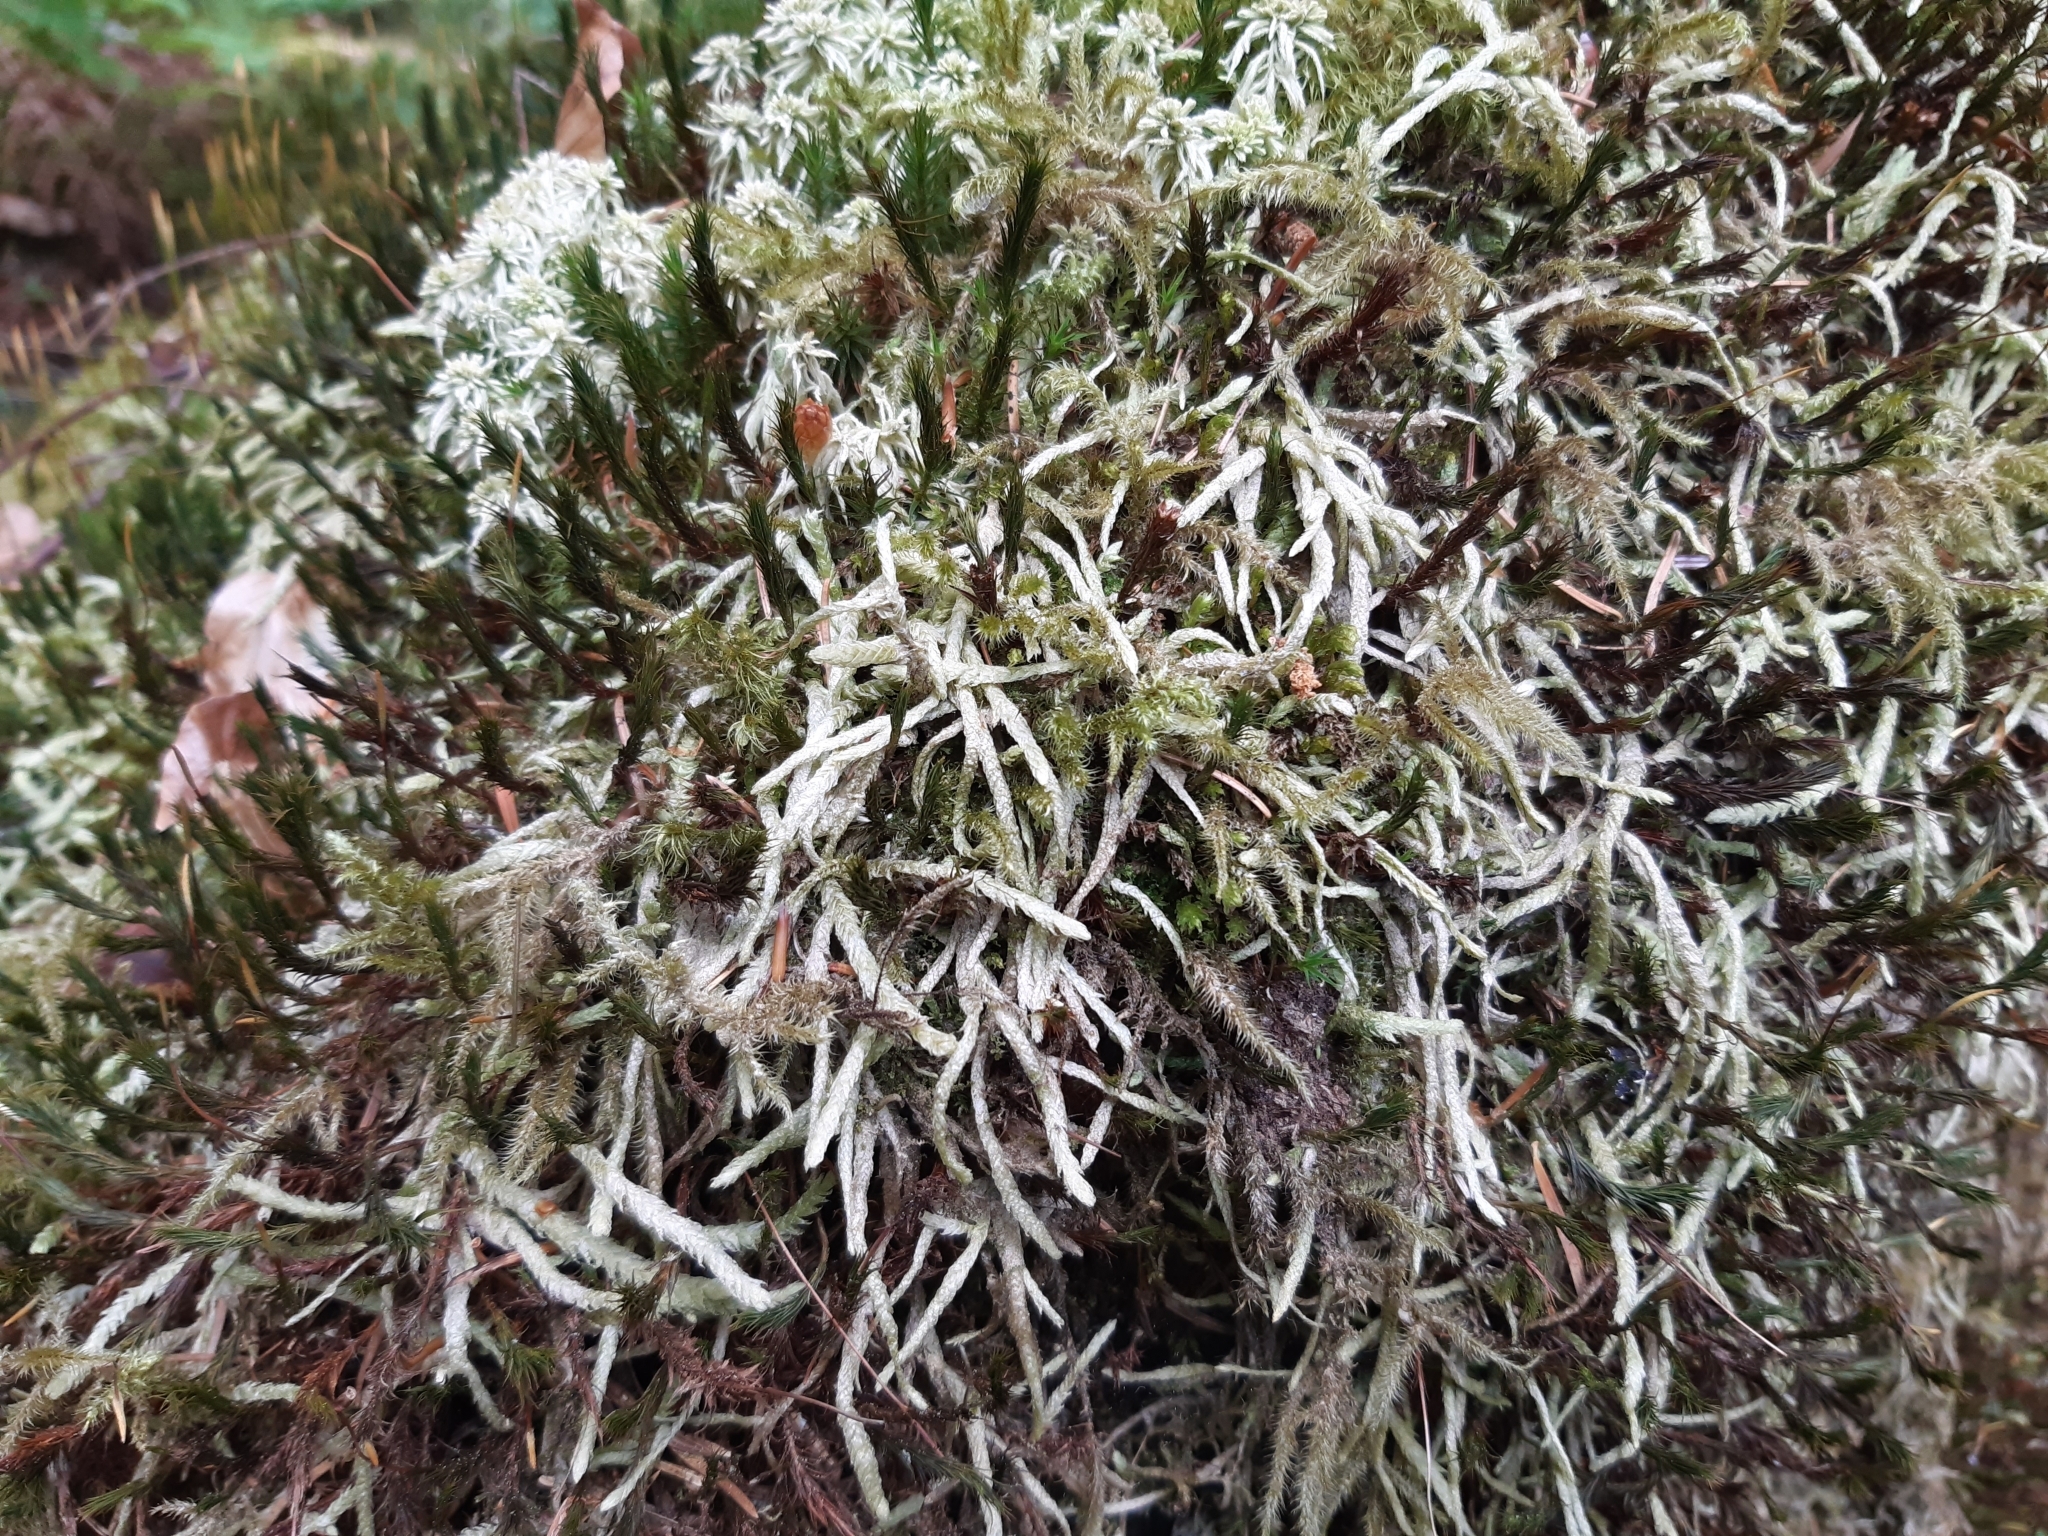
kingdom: Plantae
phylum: Bryophyta
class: Bryopsida
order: Hypnales
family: Plagiotheciaceae
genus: Plagiothecium
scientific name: Plagiothecium undulatum
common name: Waved silk-moss
